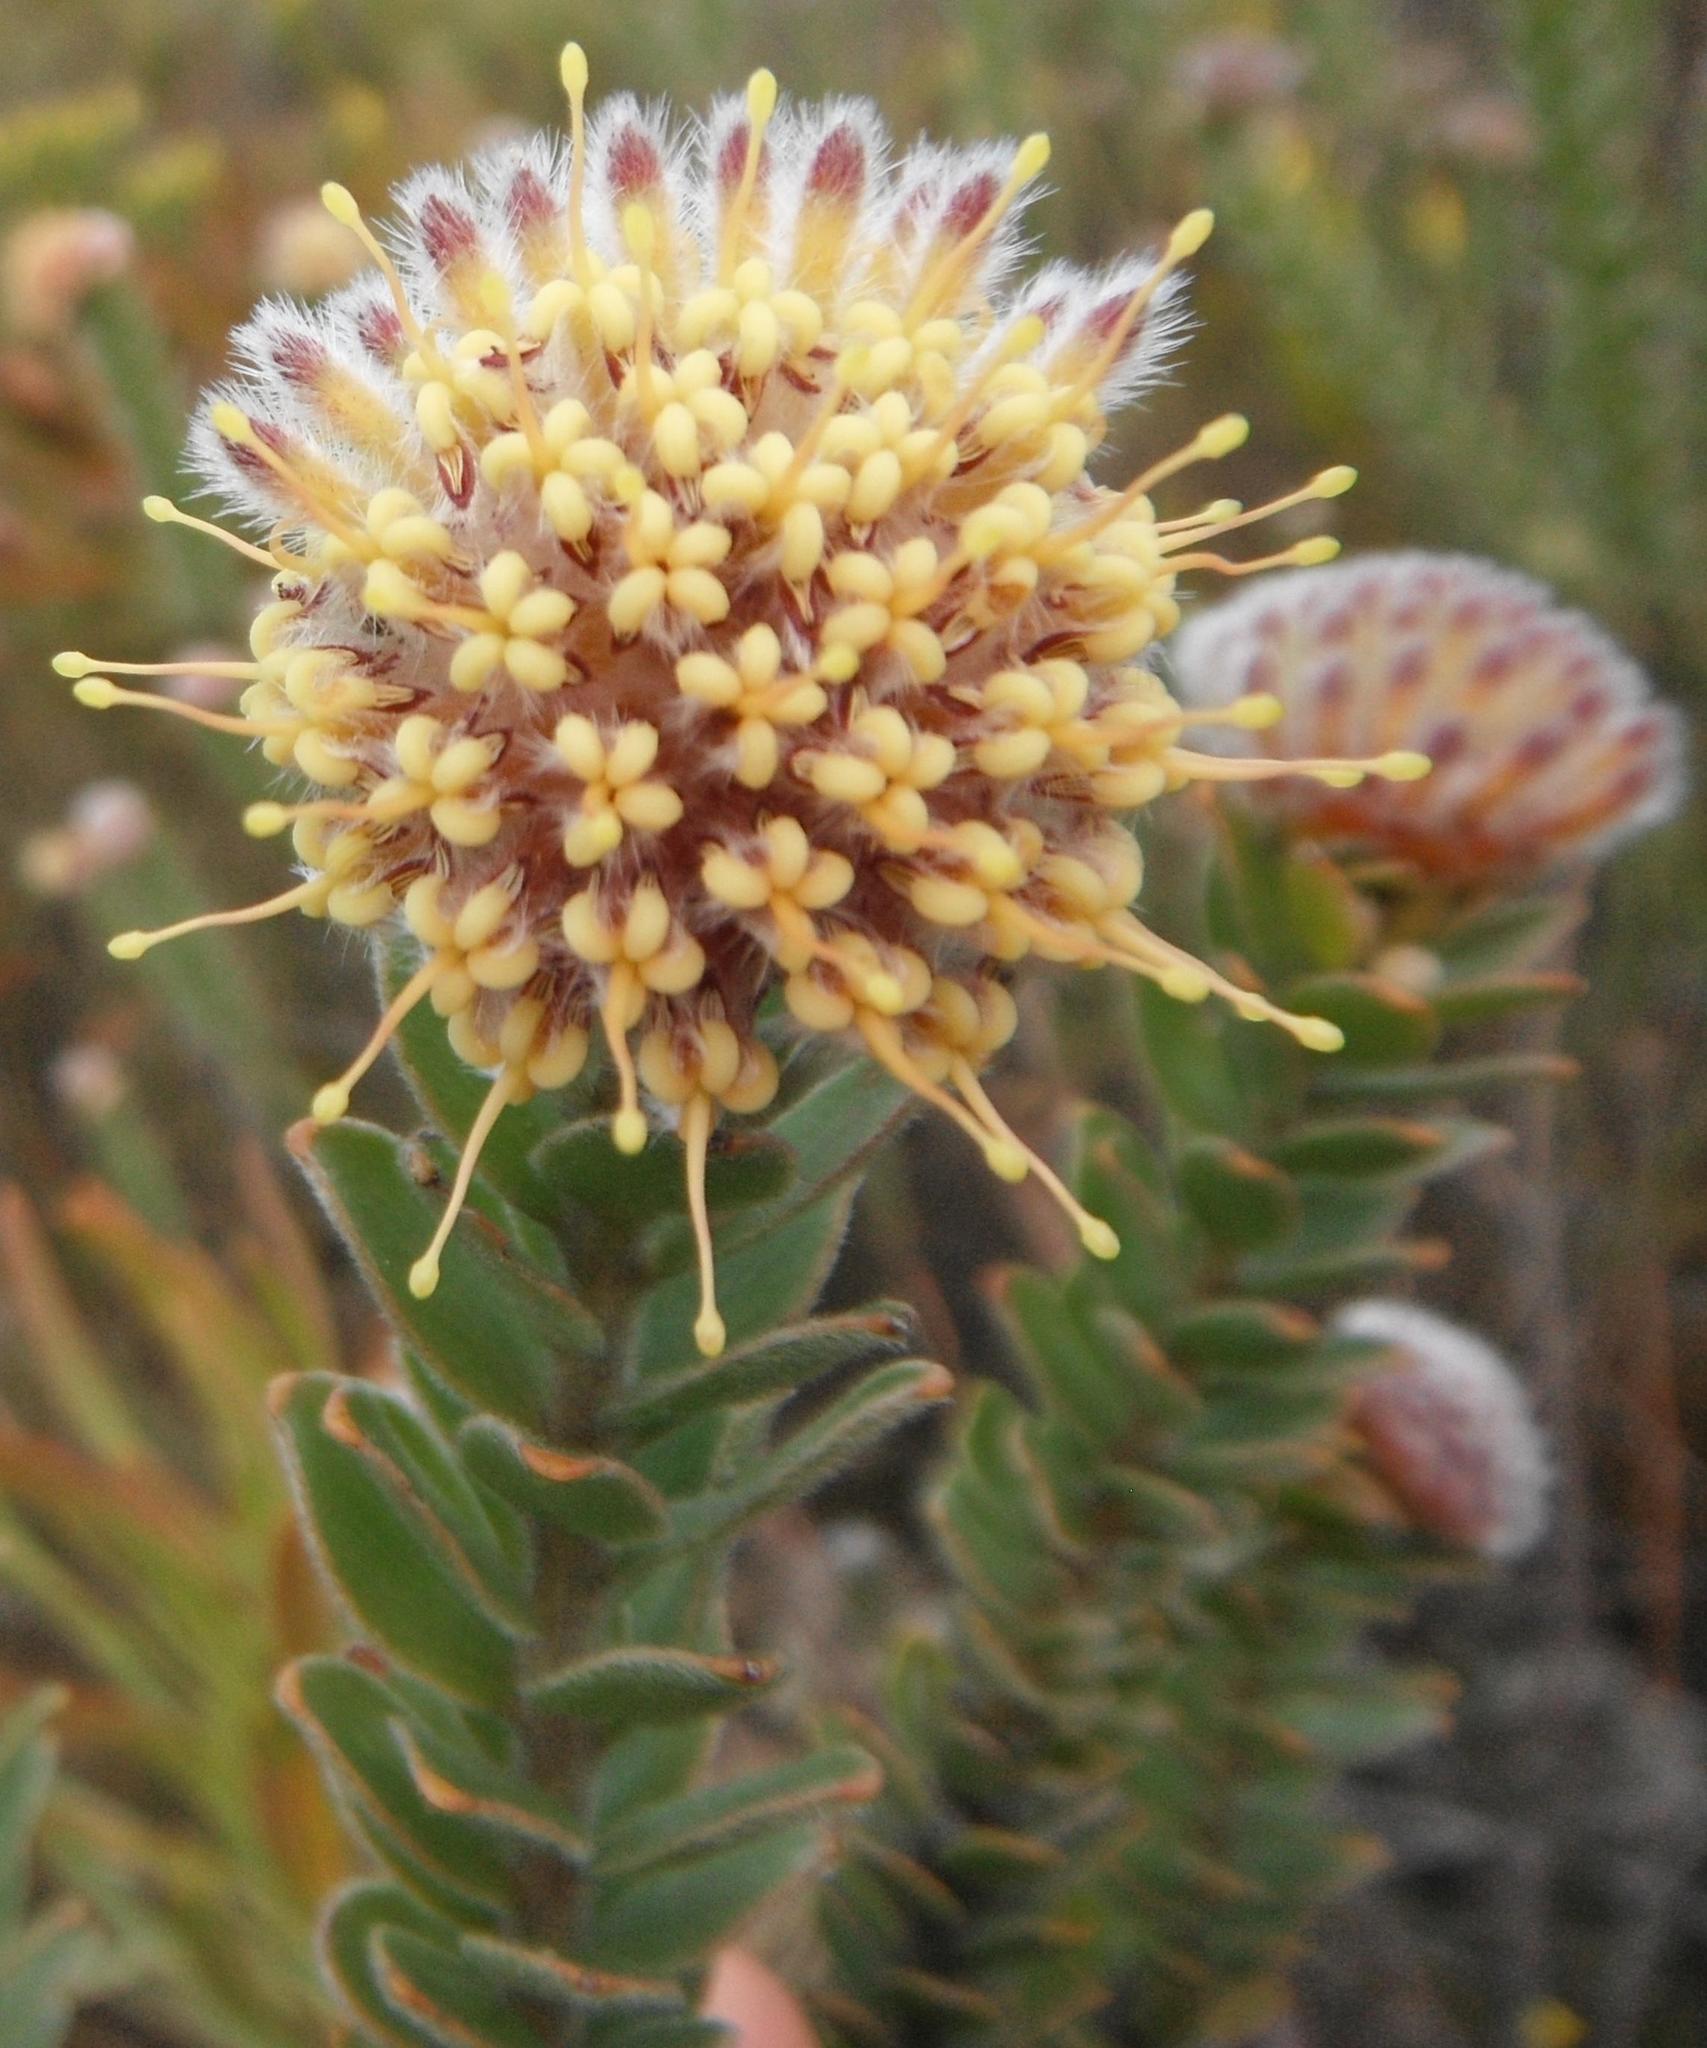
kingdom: Plantae
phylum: Tracheophyta
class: Magnoliopsida
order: Proteales
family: Proteaceae
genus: Leucospermum
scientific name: Leucospermum truncatulum
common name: Oval-leaf pincushion
